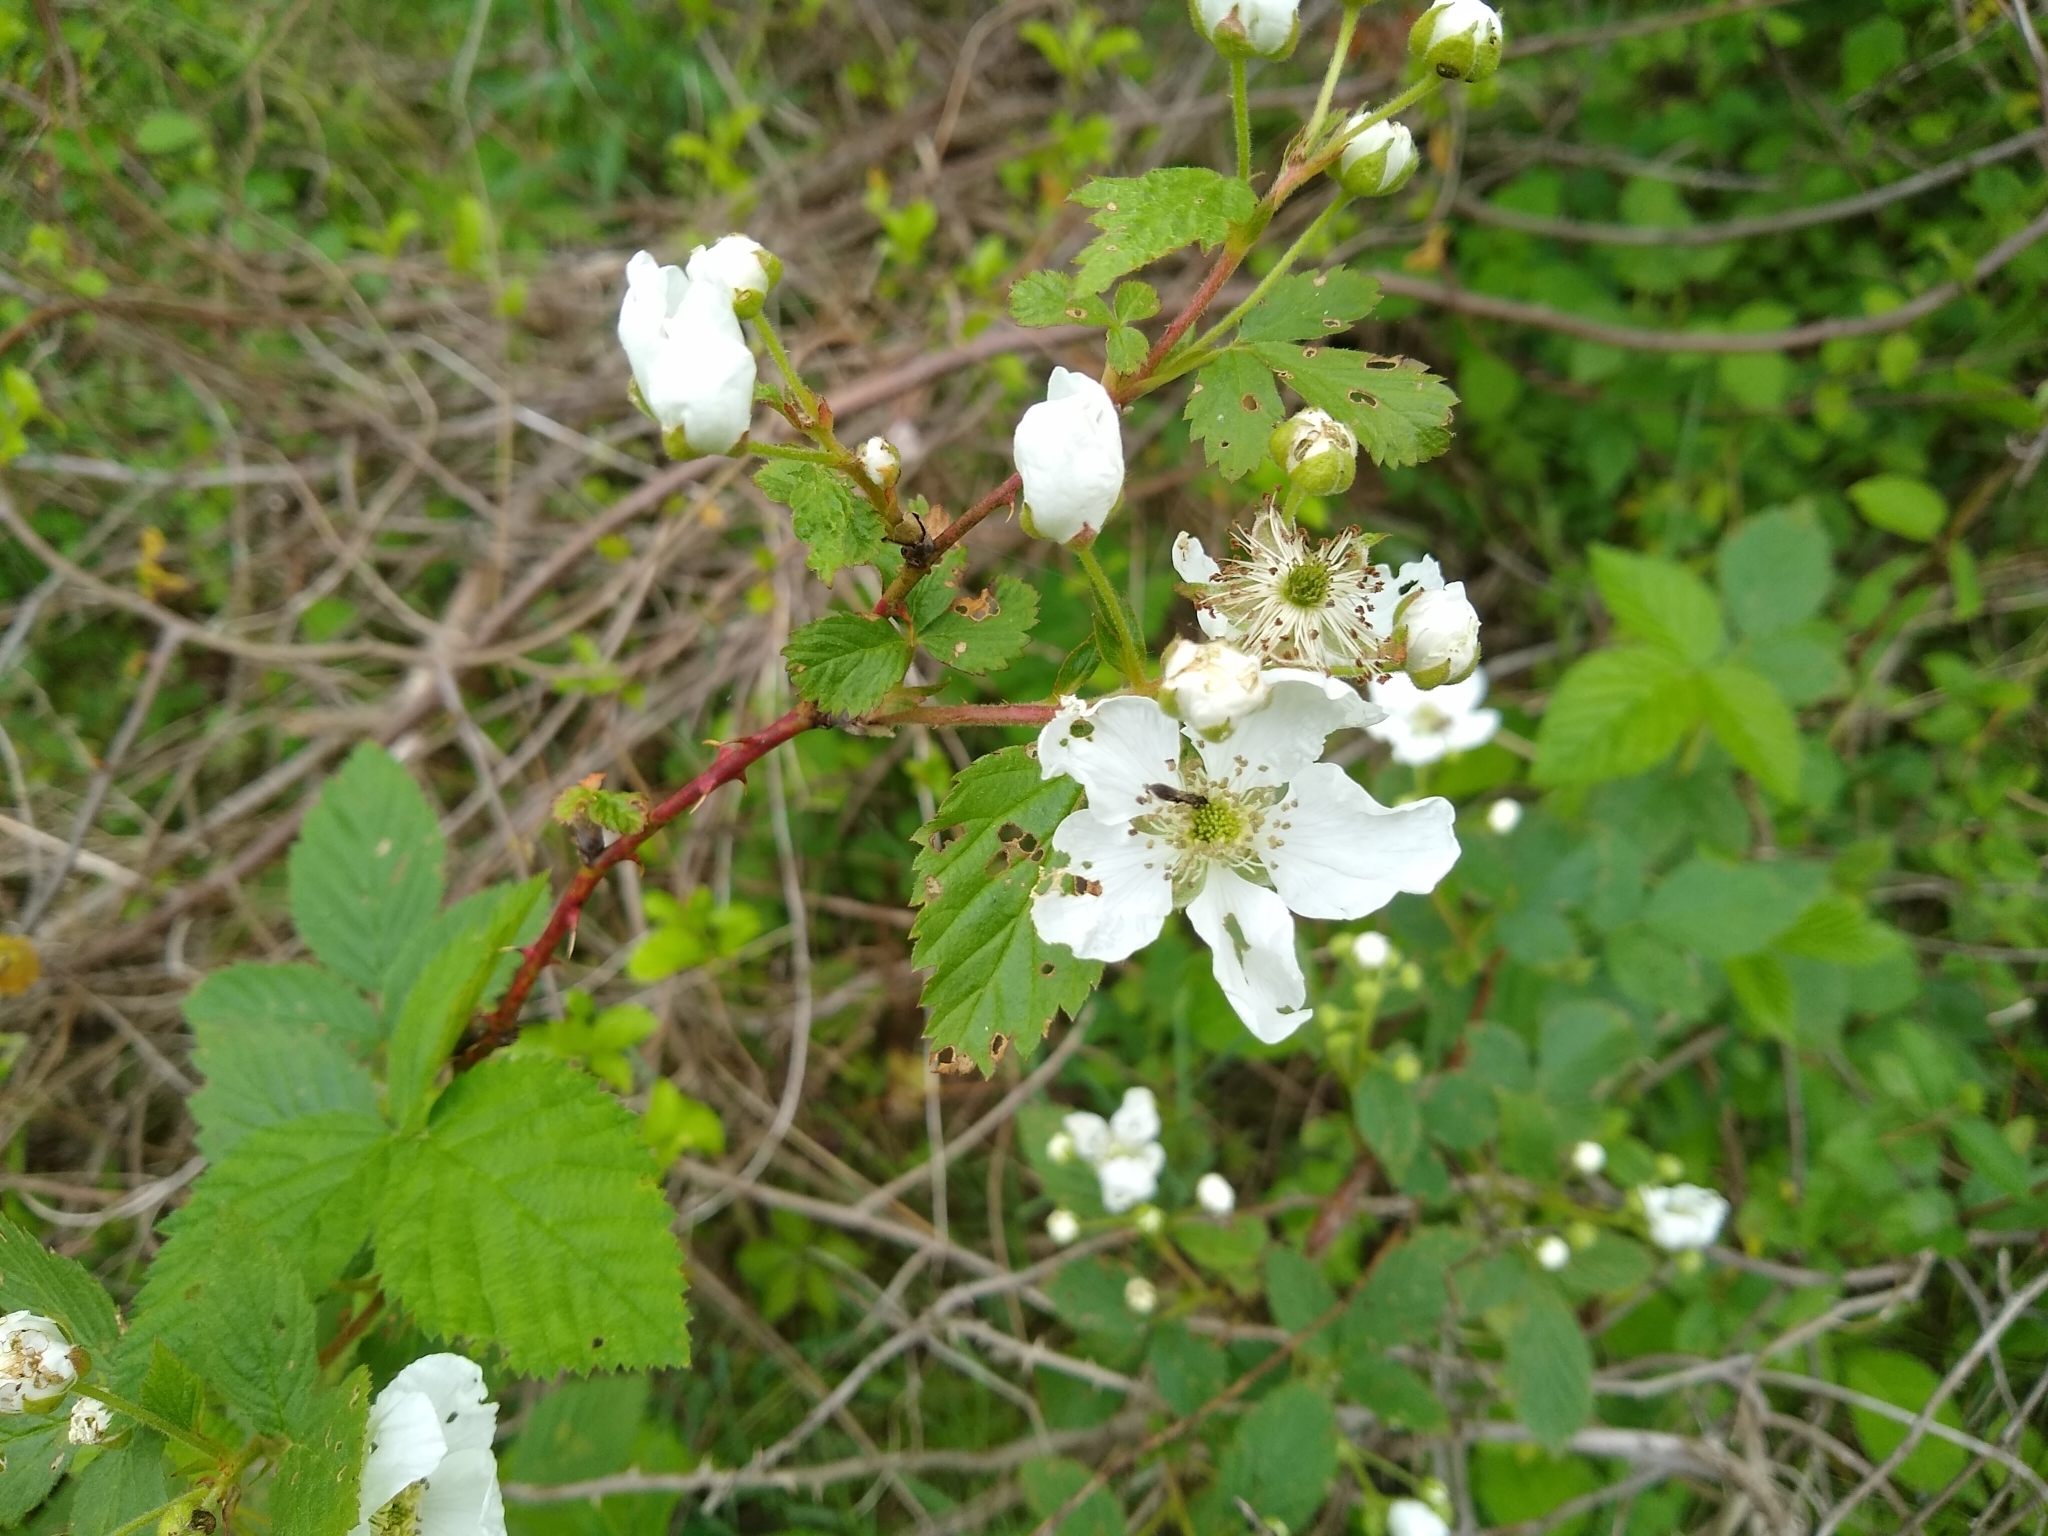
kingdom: Plantae
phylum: Tracheophyta
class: Magnoliopsida
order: Rosales
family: Rosaceae
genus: Rubus
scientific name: Rubus allegheniensis
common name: Allegheny blackberry
